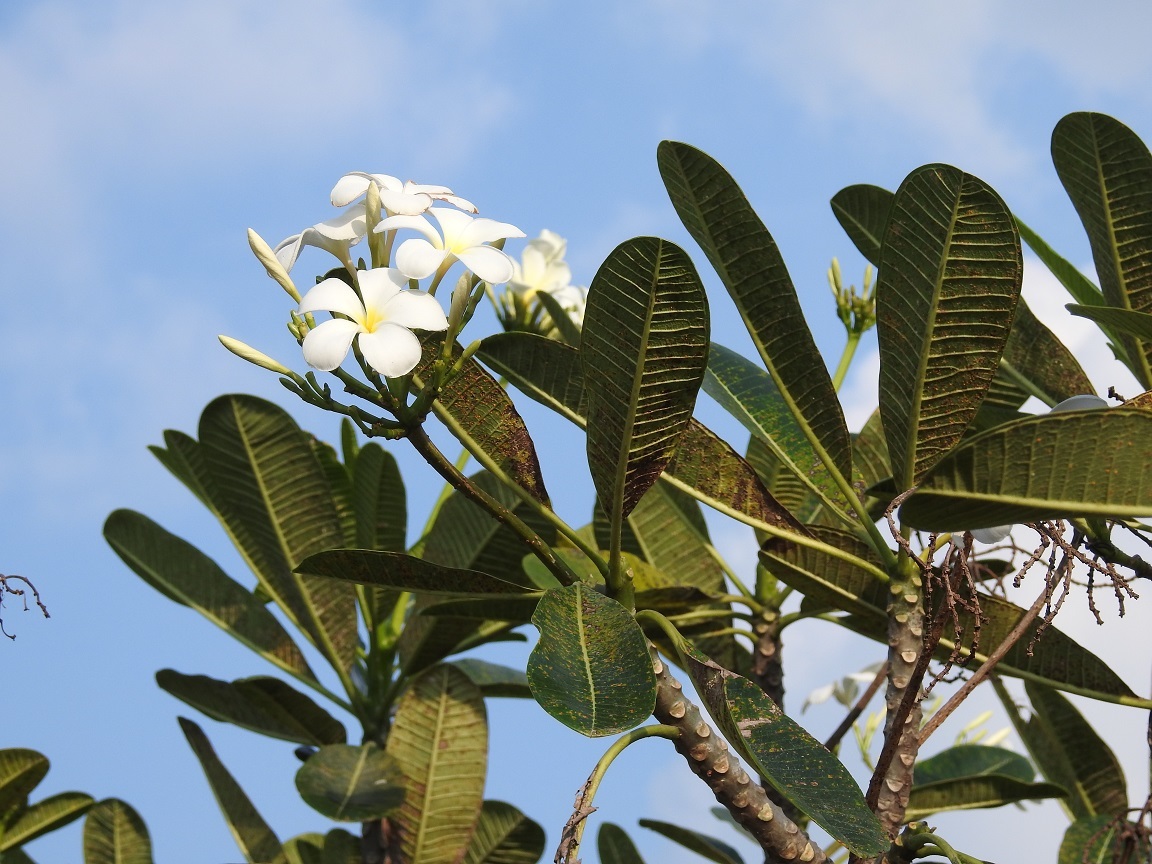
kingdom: Plantae
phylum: Tracheophyta
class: Magnoliopsida
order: Gentianales
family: Apocynaceae
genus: Plumeria
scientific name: Plumeria obtusa
